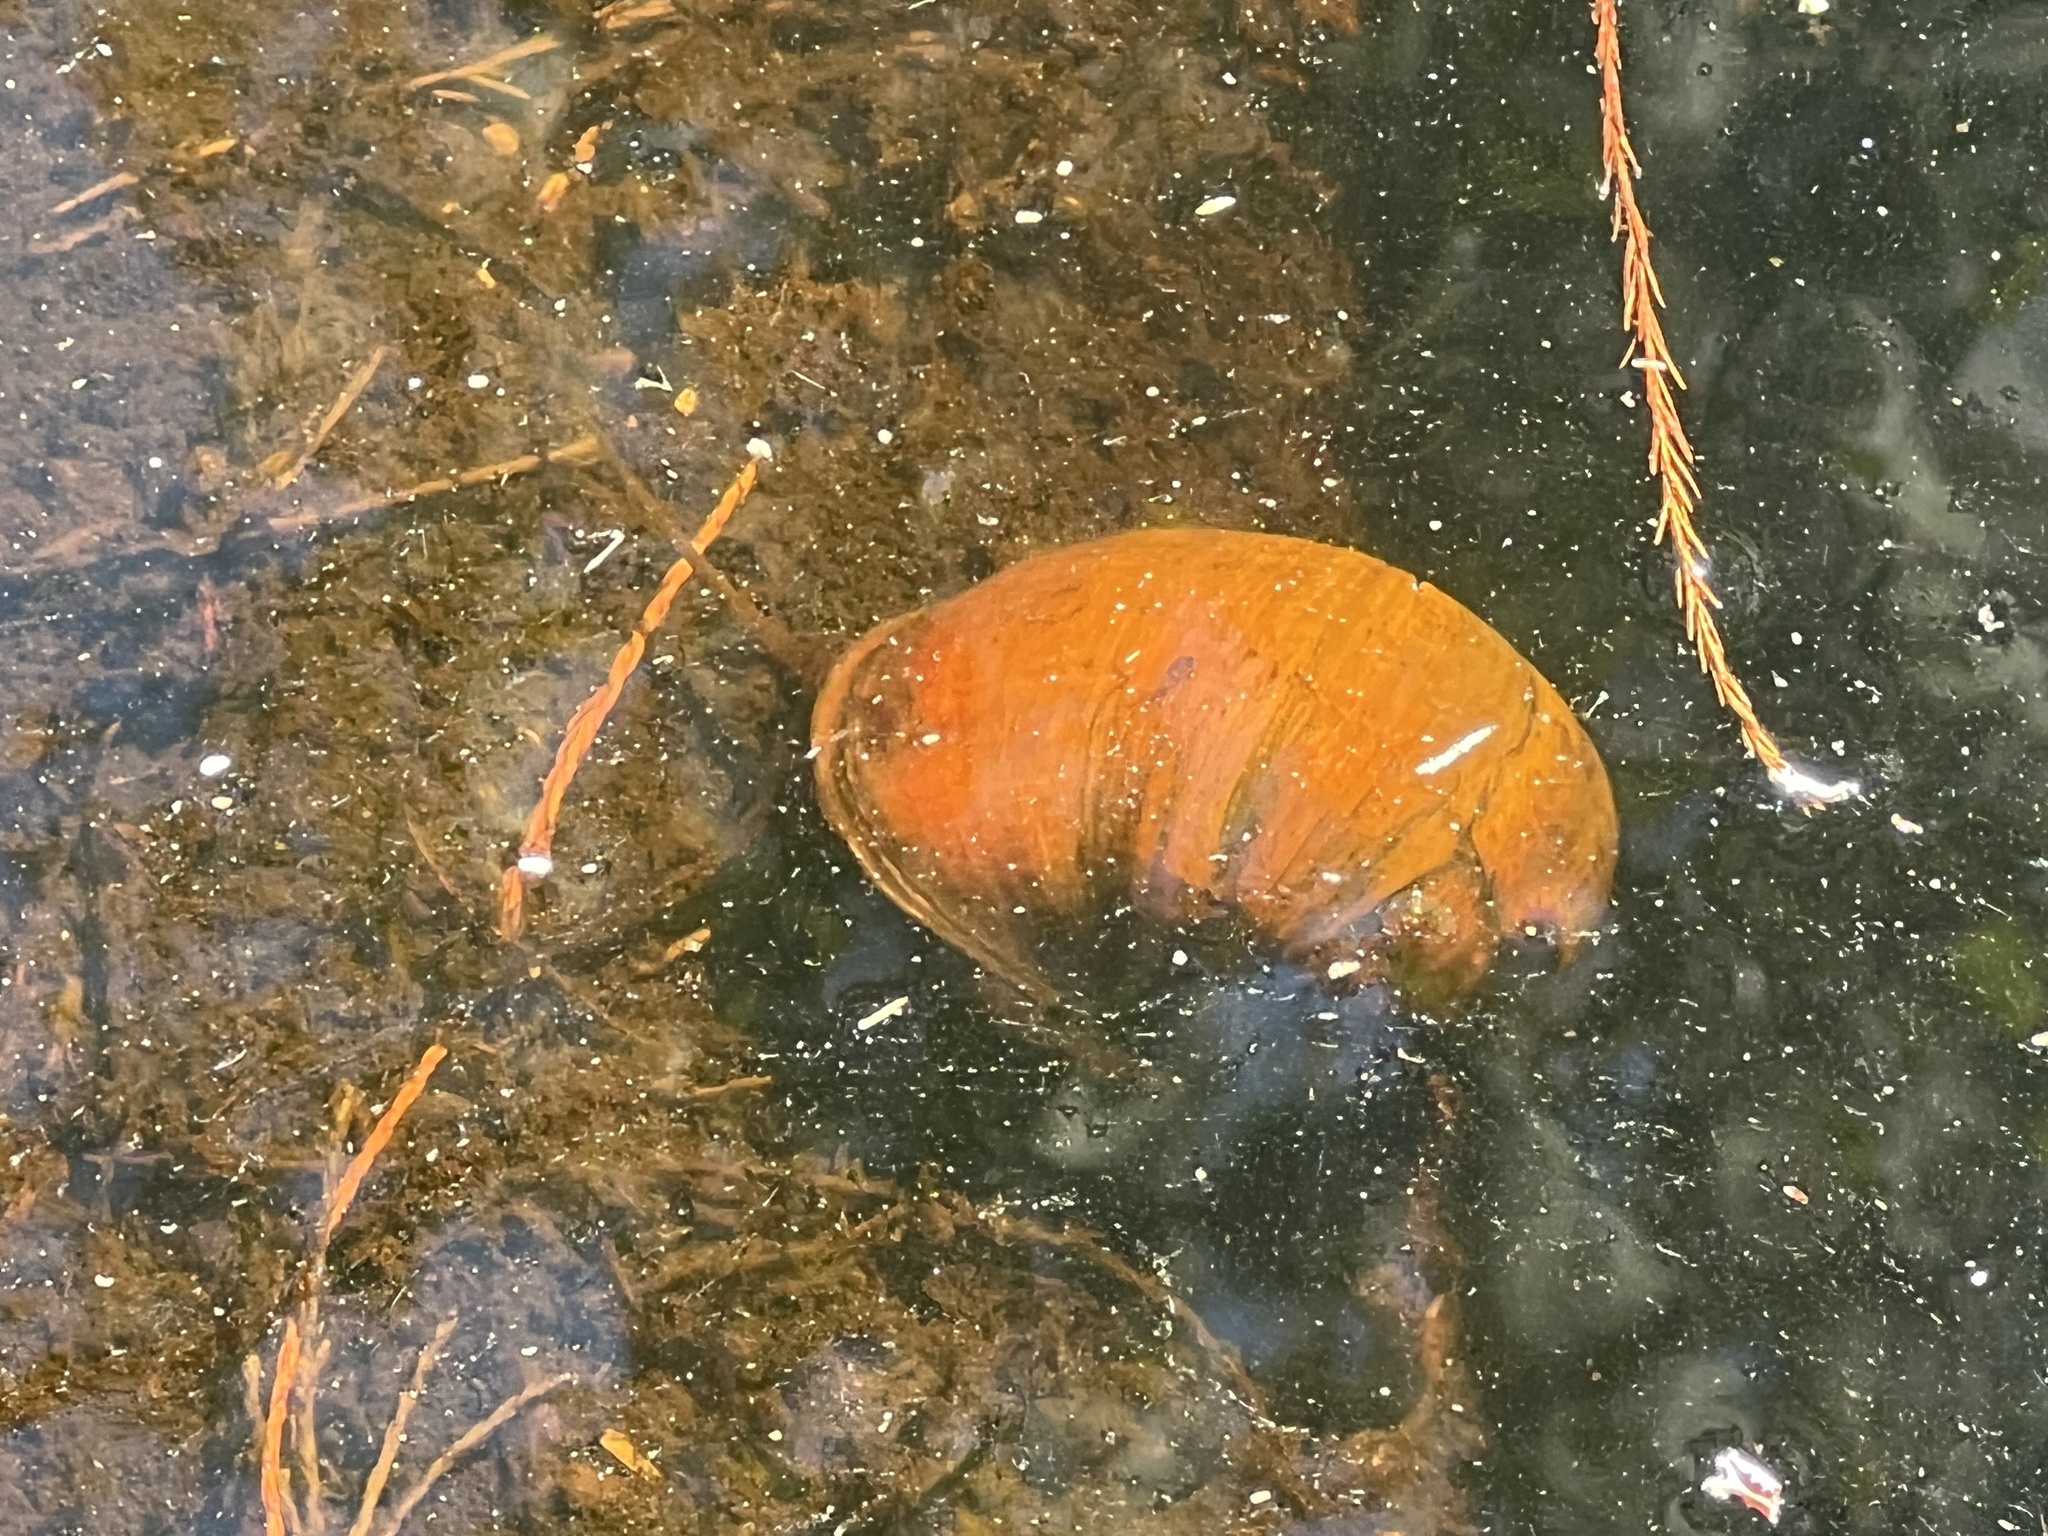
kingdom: Animalia
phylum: Mollusca
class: Gastropoda
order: Architaenioglossa
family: Ampullariidae
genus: Pomacea
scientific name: Pomacea maculata
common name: Giant applesnail
